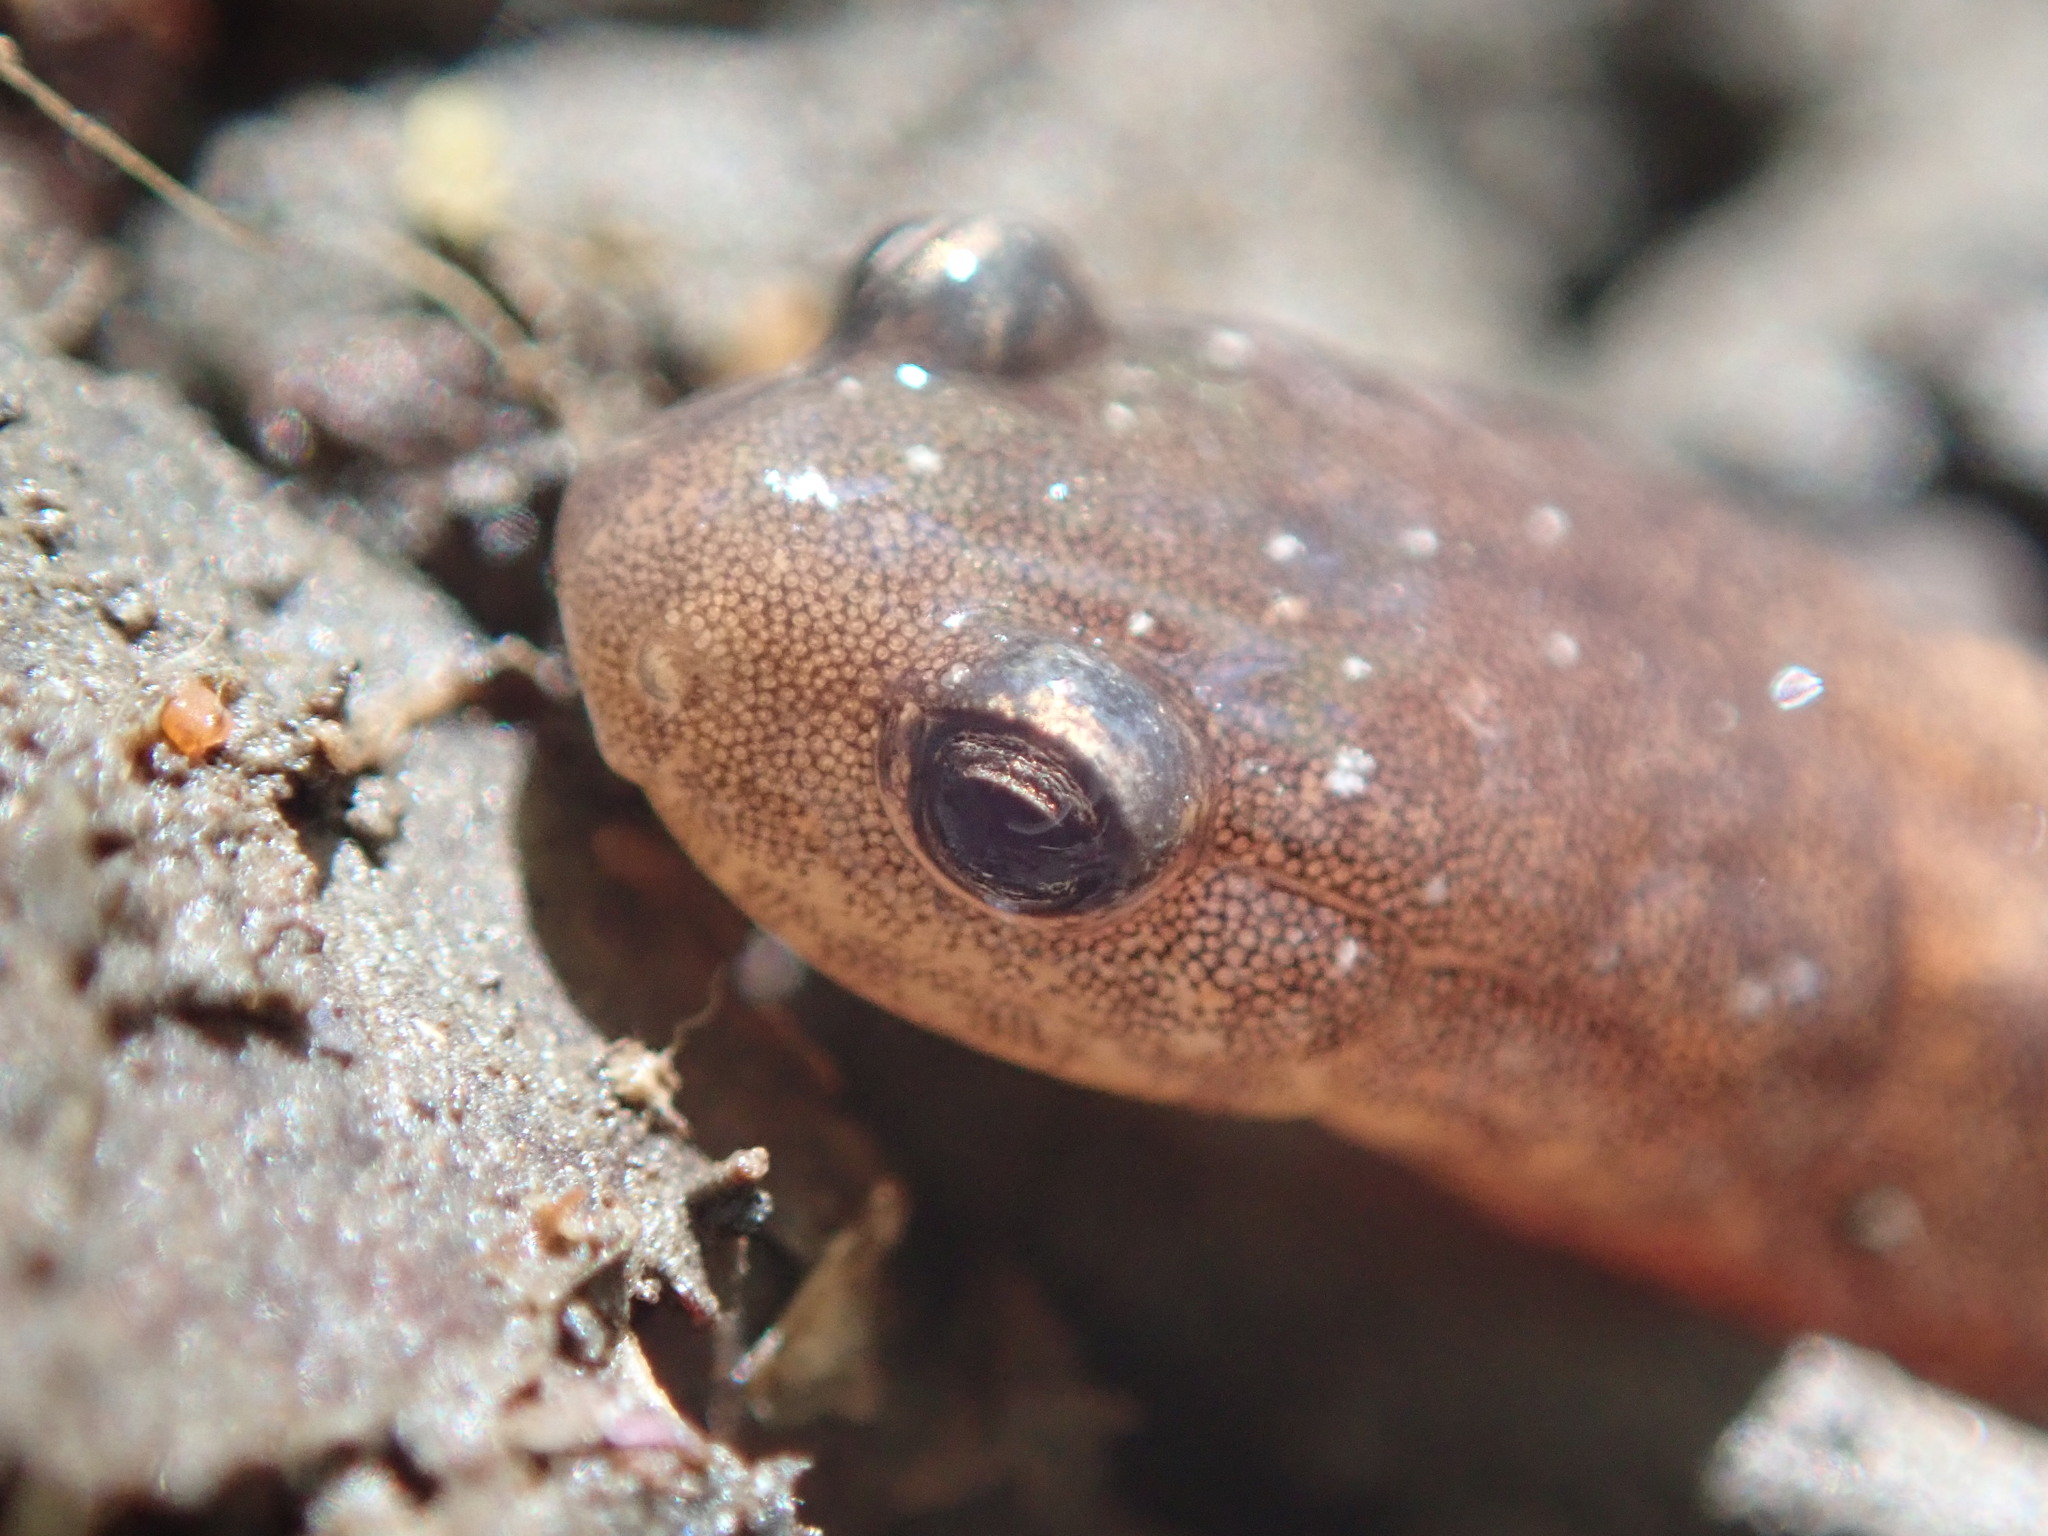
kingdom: Animalia
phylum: Chordata
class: Amphibia
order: Caudata
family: Plethodontidae
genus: Plethodon
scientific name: Plethodon cinereus
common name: Redback salamander
